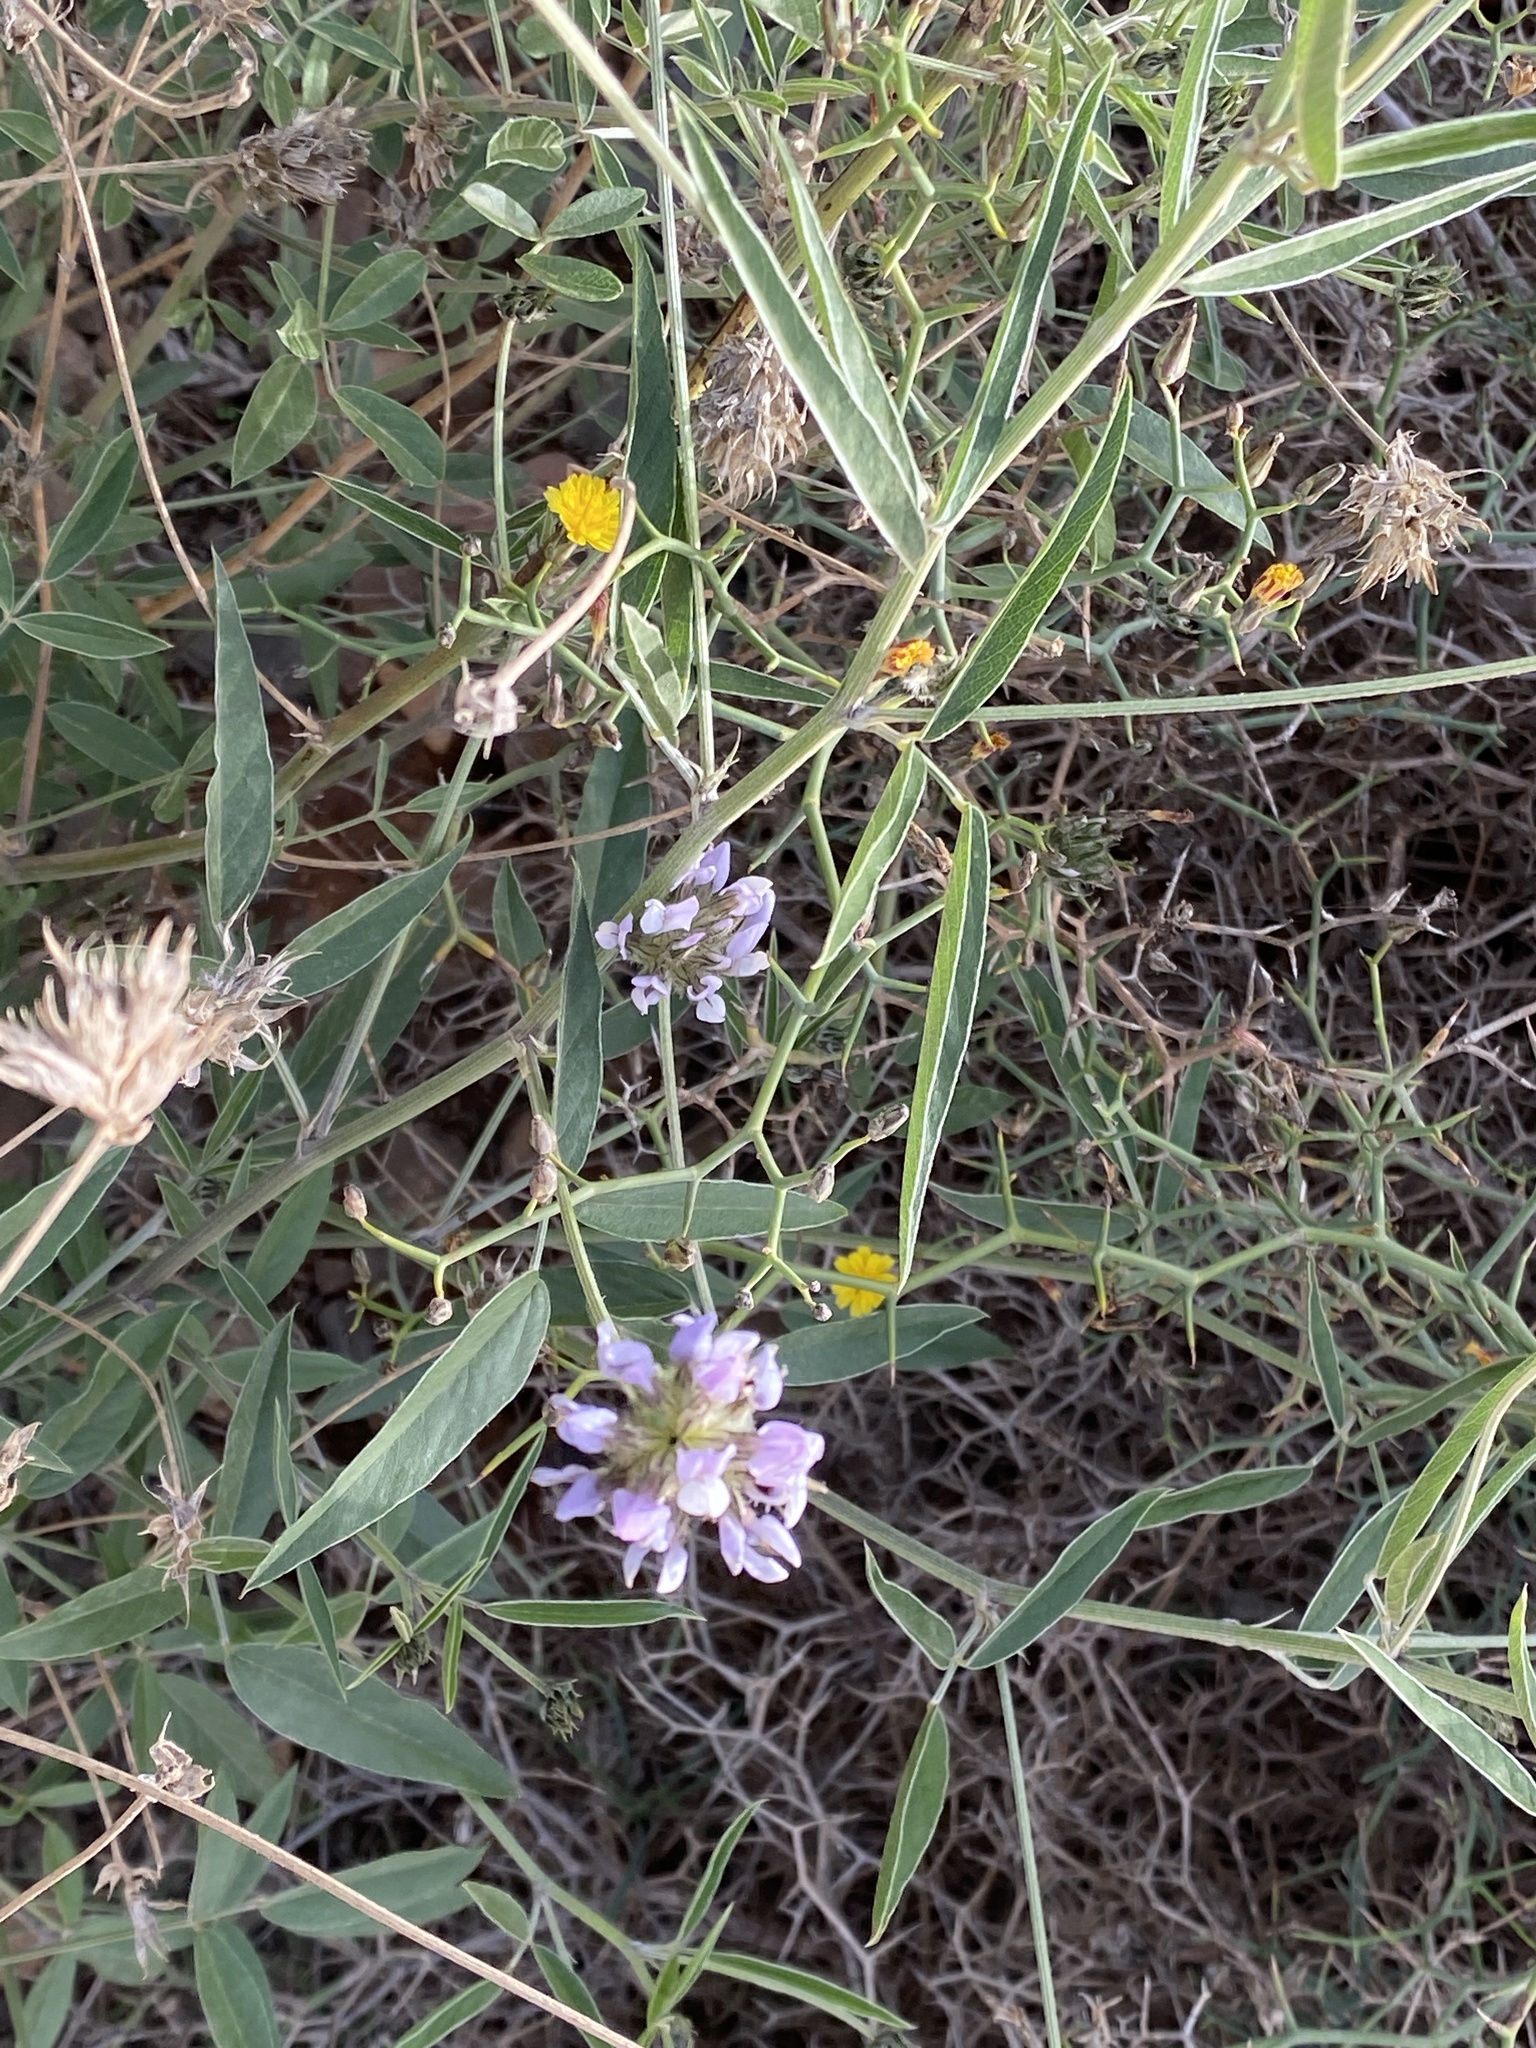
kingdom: Plantae
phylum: Tracheophyta
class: Magnoliopsida
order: Fabales
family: Fabaceae
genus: Bituminaria
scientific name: Bituminaria bituminosa
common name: Arabian pea
